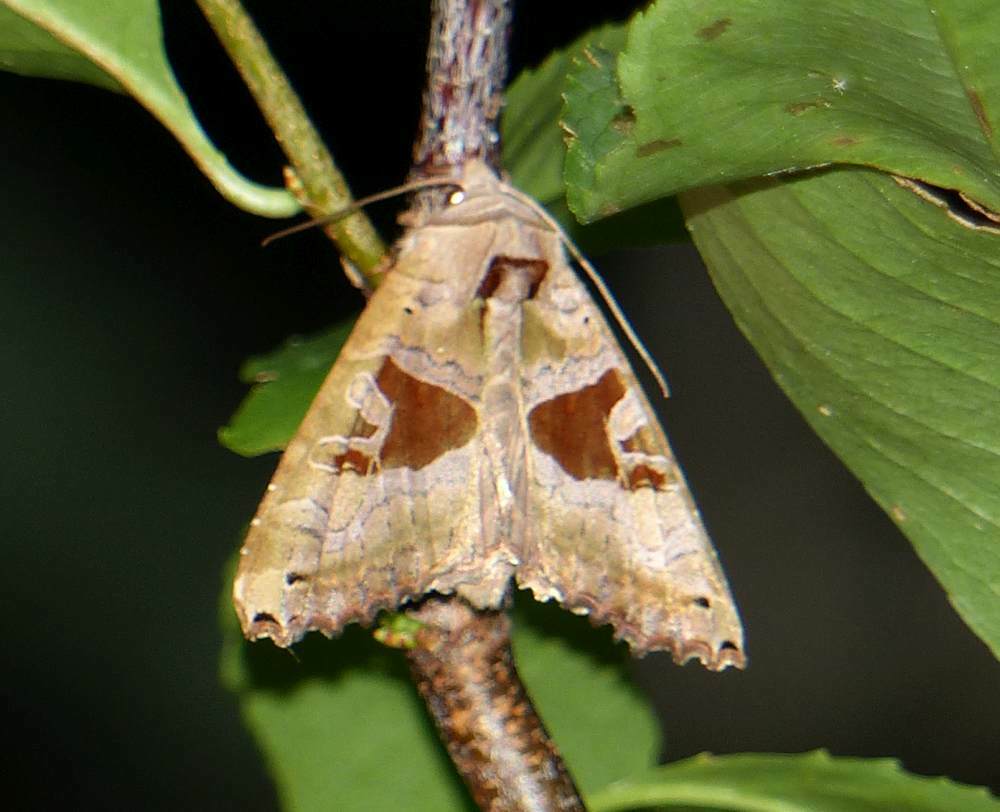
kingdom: Animalia
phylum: Arthropoda
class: Insecta
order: Lepidoptera
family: Noctuidae
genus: Phlogophora
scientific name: Phlogophora periculosa
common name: Brown angle shades
